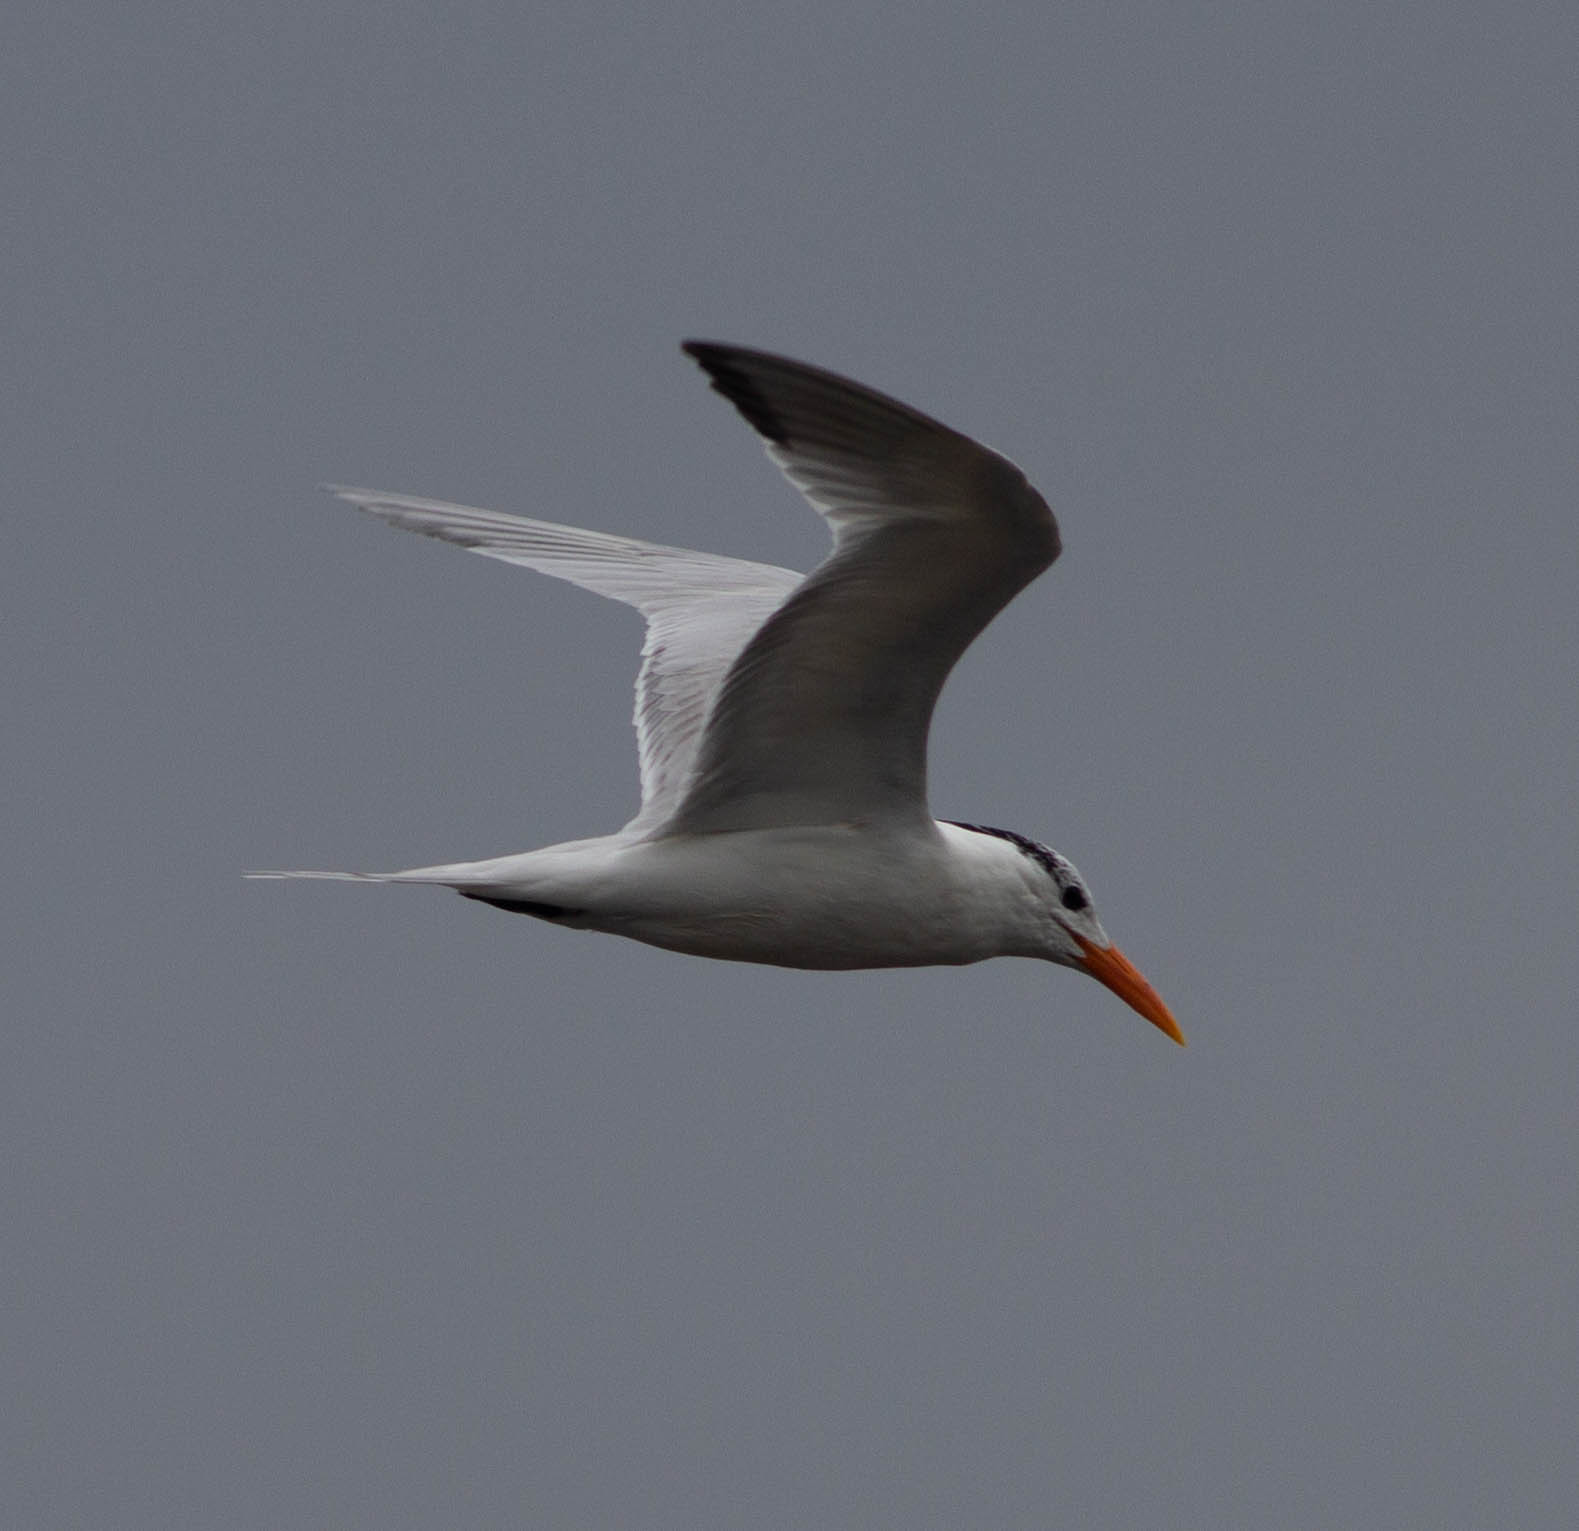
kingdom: Animalia
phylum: Chordata
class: Aves
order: Charadriiformes
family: Laridae
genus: Thalasseus
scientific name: Thalasseus maximus
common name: Royal tern
